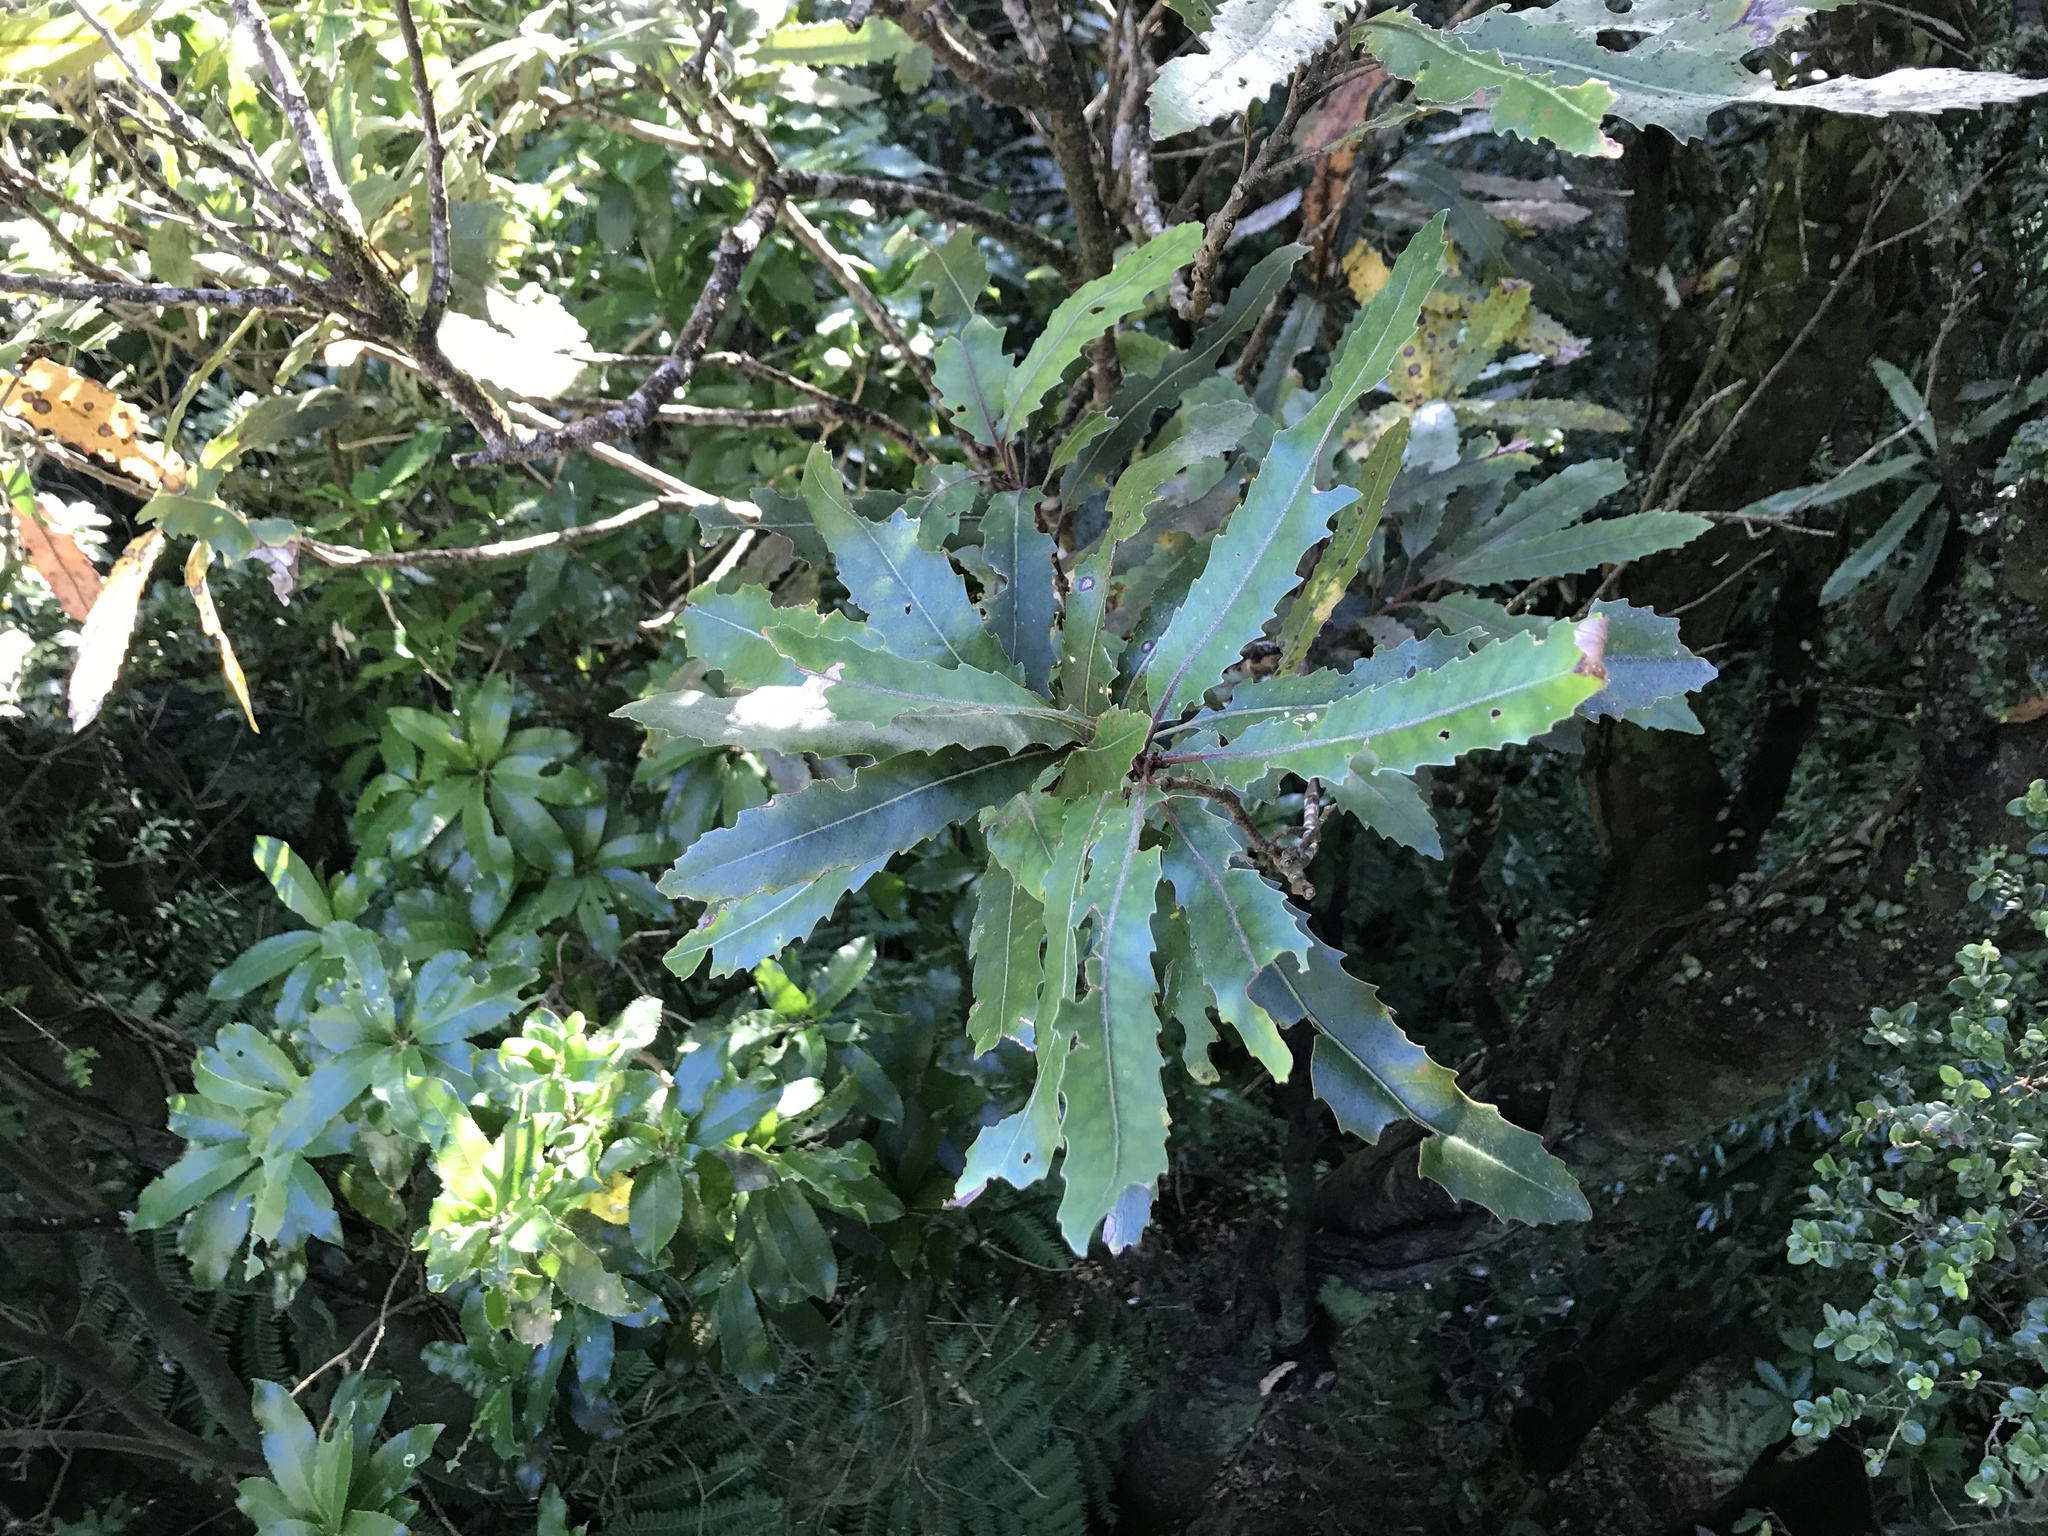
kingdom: Plantae
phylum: Tracheophyta
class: Magnoliopsida
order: Proteales
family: Proteaceae
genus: Knightia
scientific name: Knightia excelsa
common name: New zealand-honeysuckle
